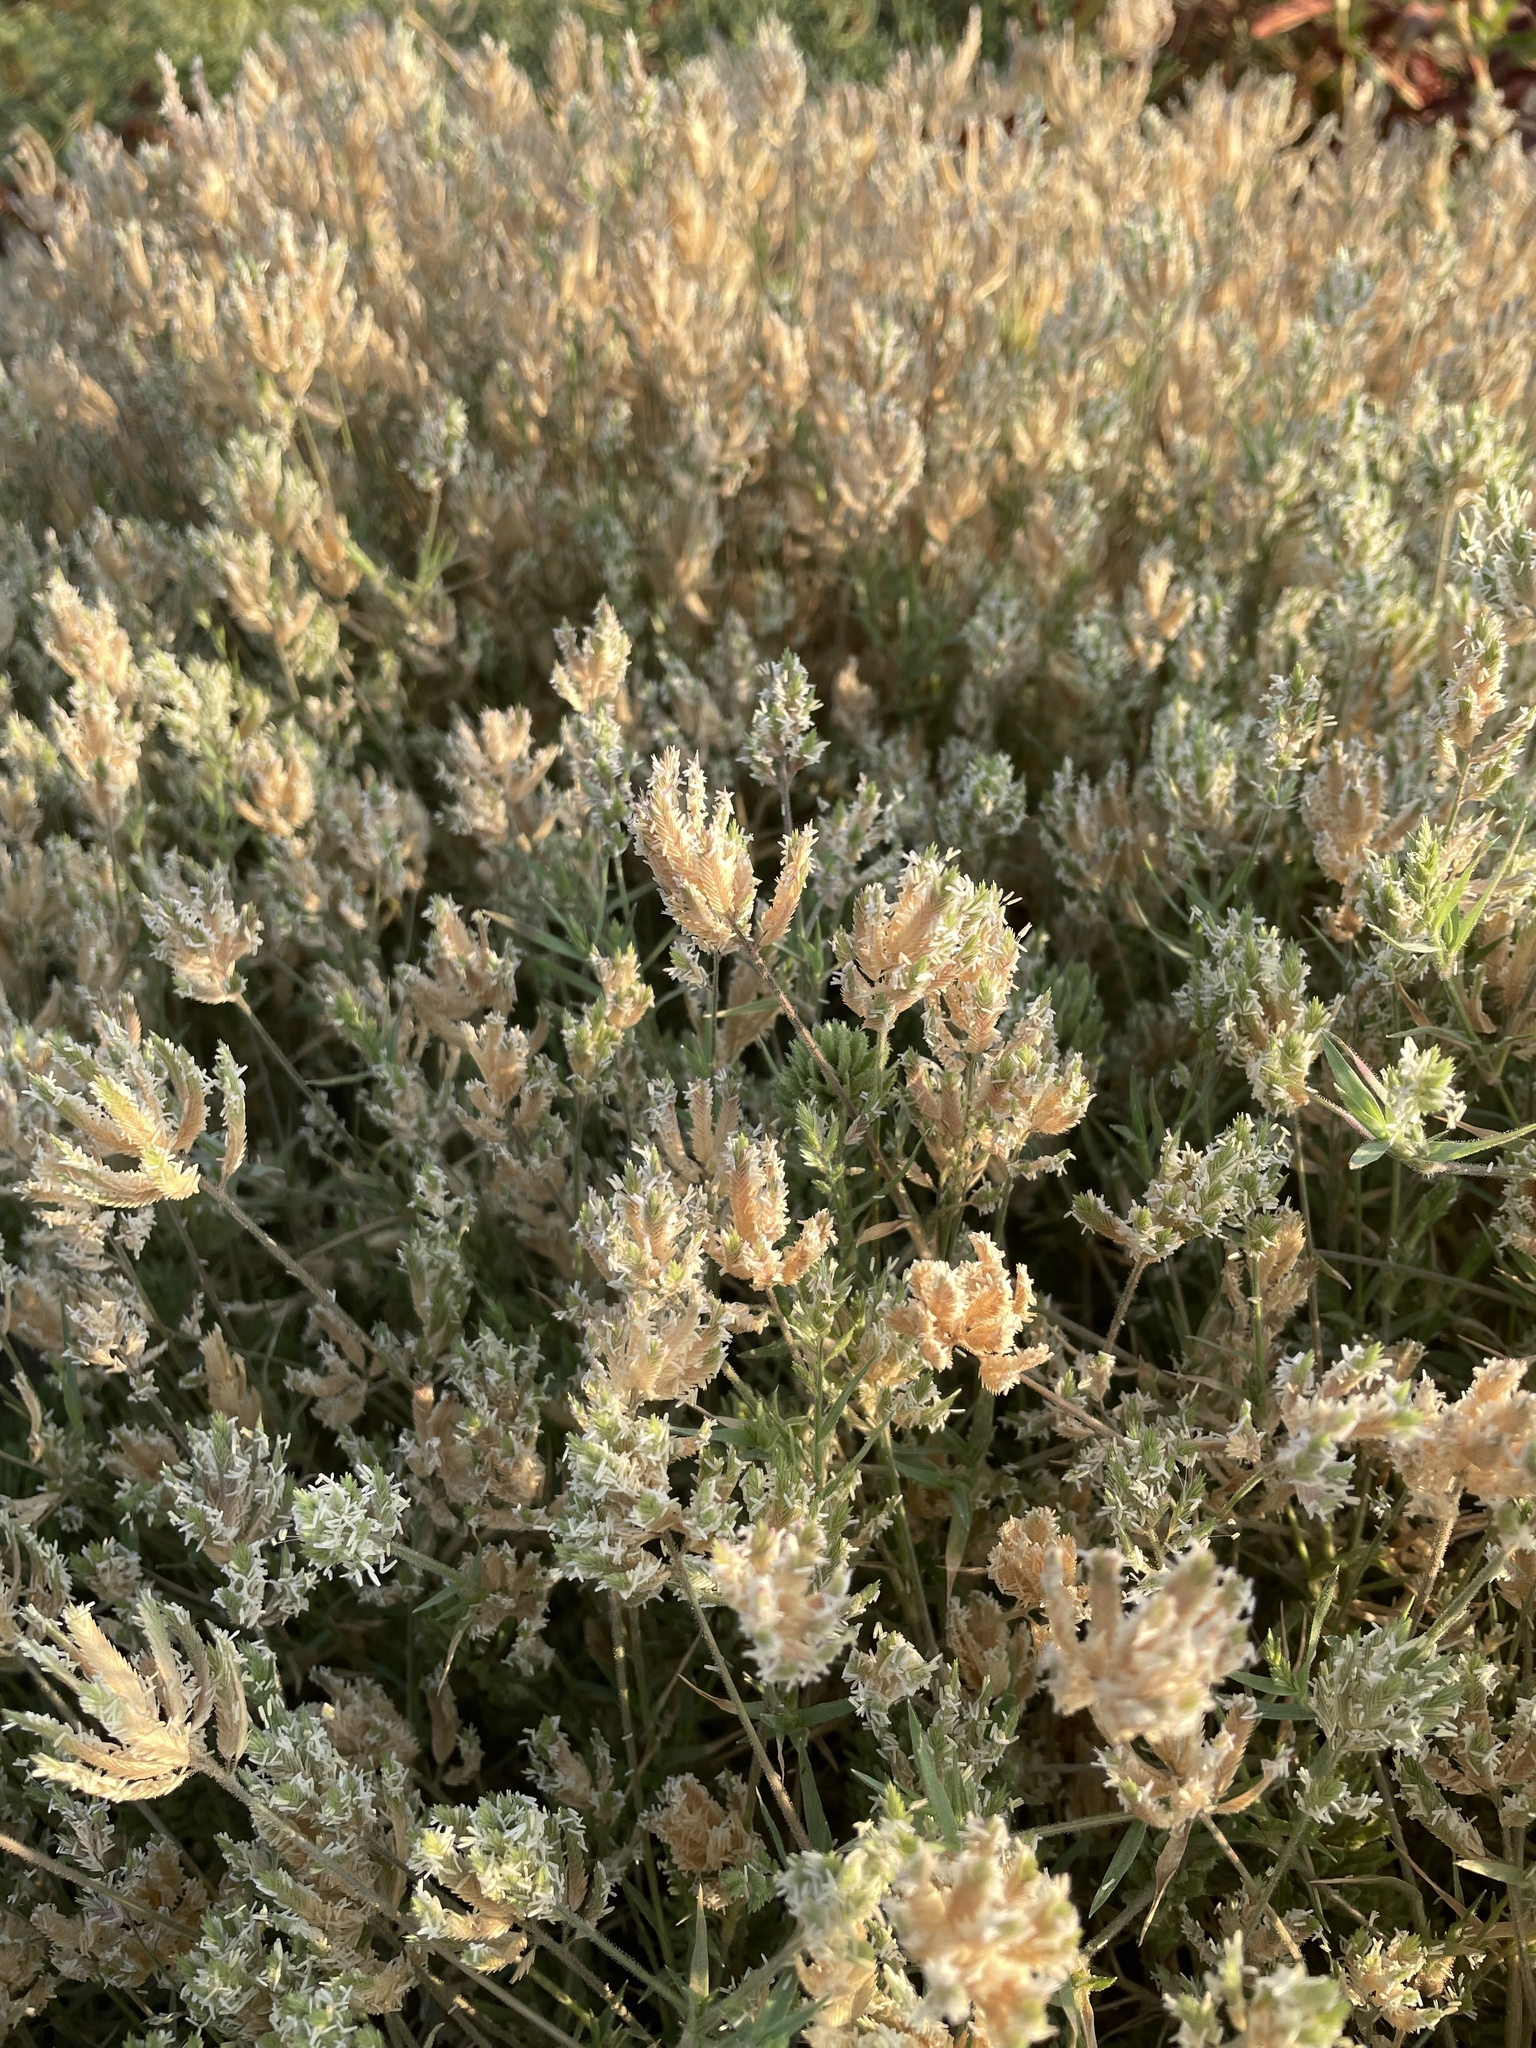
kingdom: Plantae
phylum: Tracheophyta
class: Liliopsida
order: Poales
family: Poaceae
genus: Eragrostis
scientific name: Eragrostis reptans
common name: Creeping love grass
